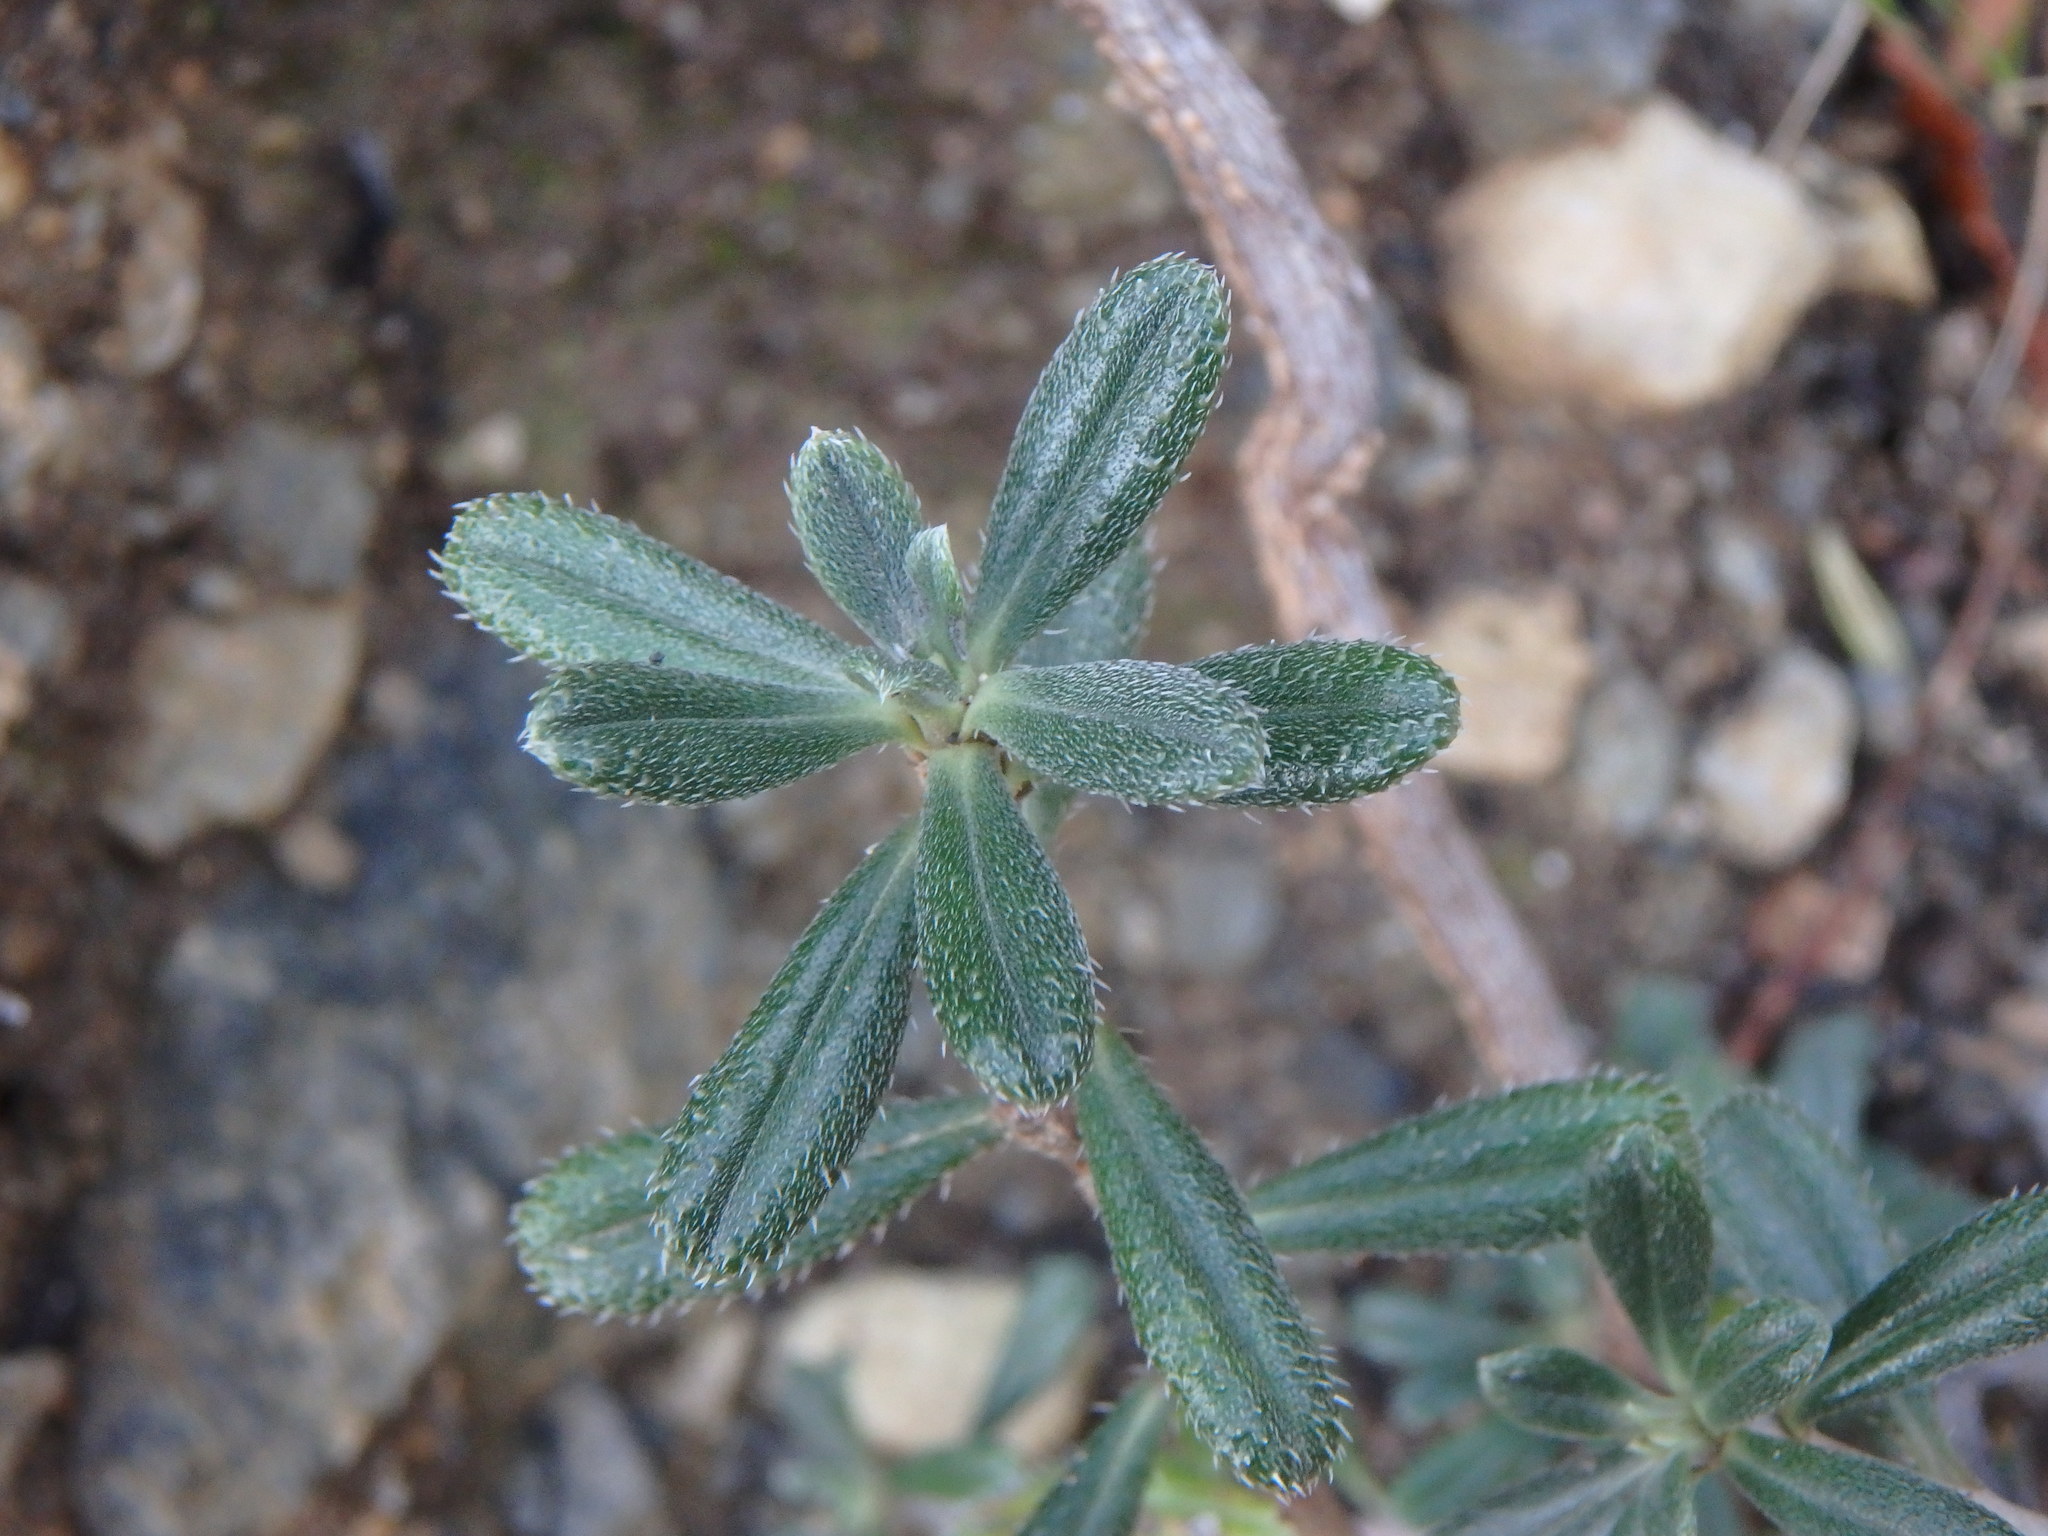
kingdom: Plantae
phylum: Tracheophyta
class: Magnoliopsida
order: Boraginales
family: Boraginaceae
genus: Lithodora
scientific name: Lithodora hispidula
